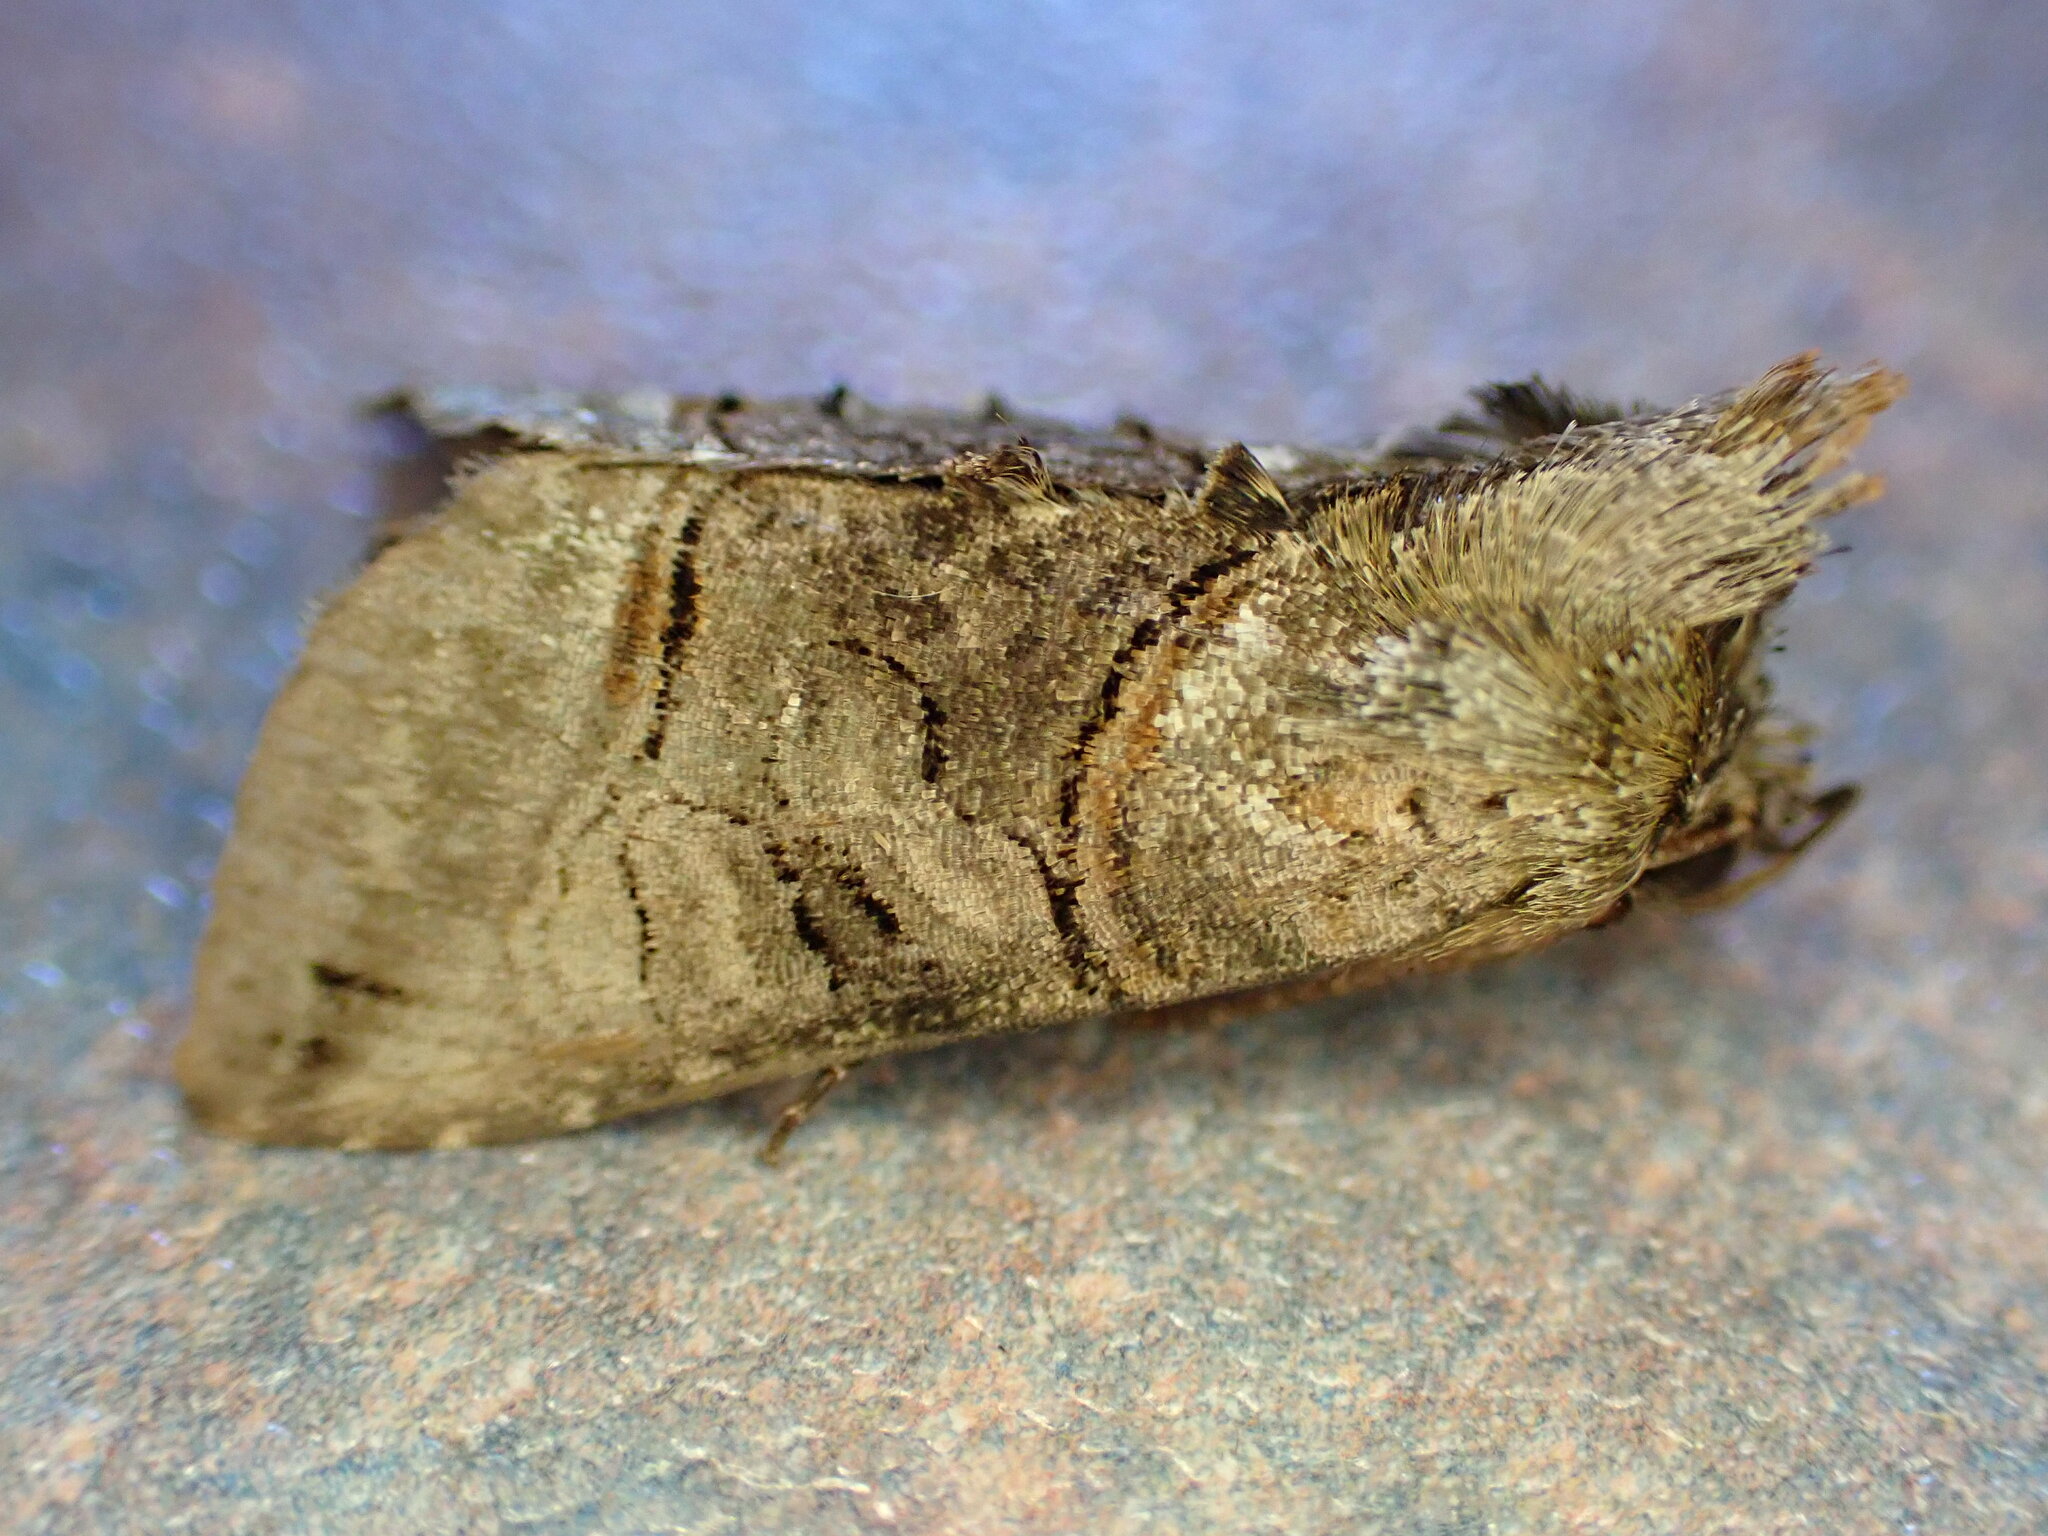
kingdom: Animalia
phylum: Arthropoda
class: Insecta
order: Lepidoptera
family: Noctuidae
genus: Abrostola
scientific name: Abrostola tripartita
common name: Spectacle
